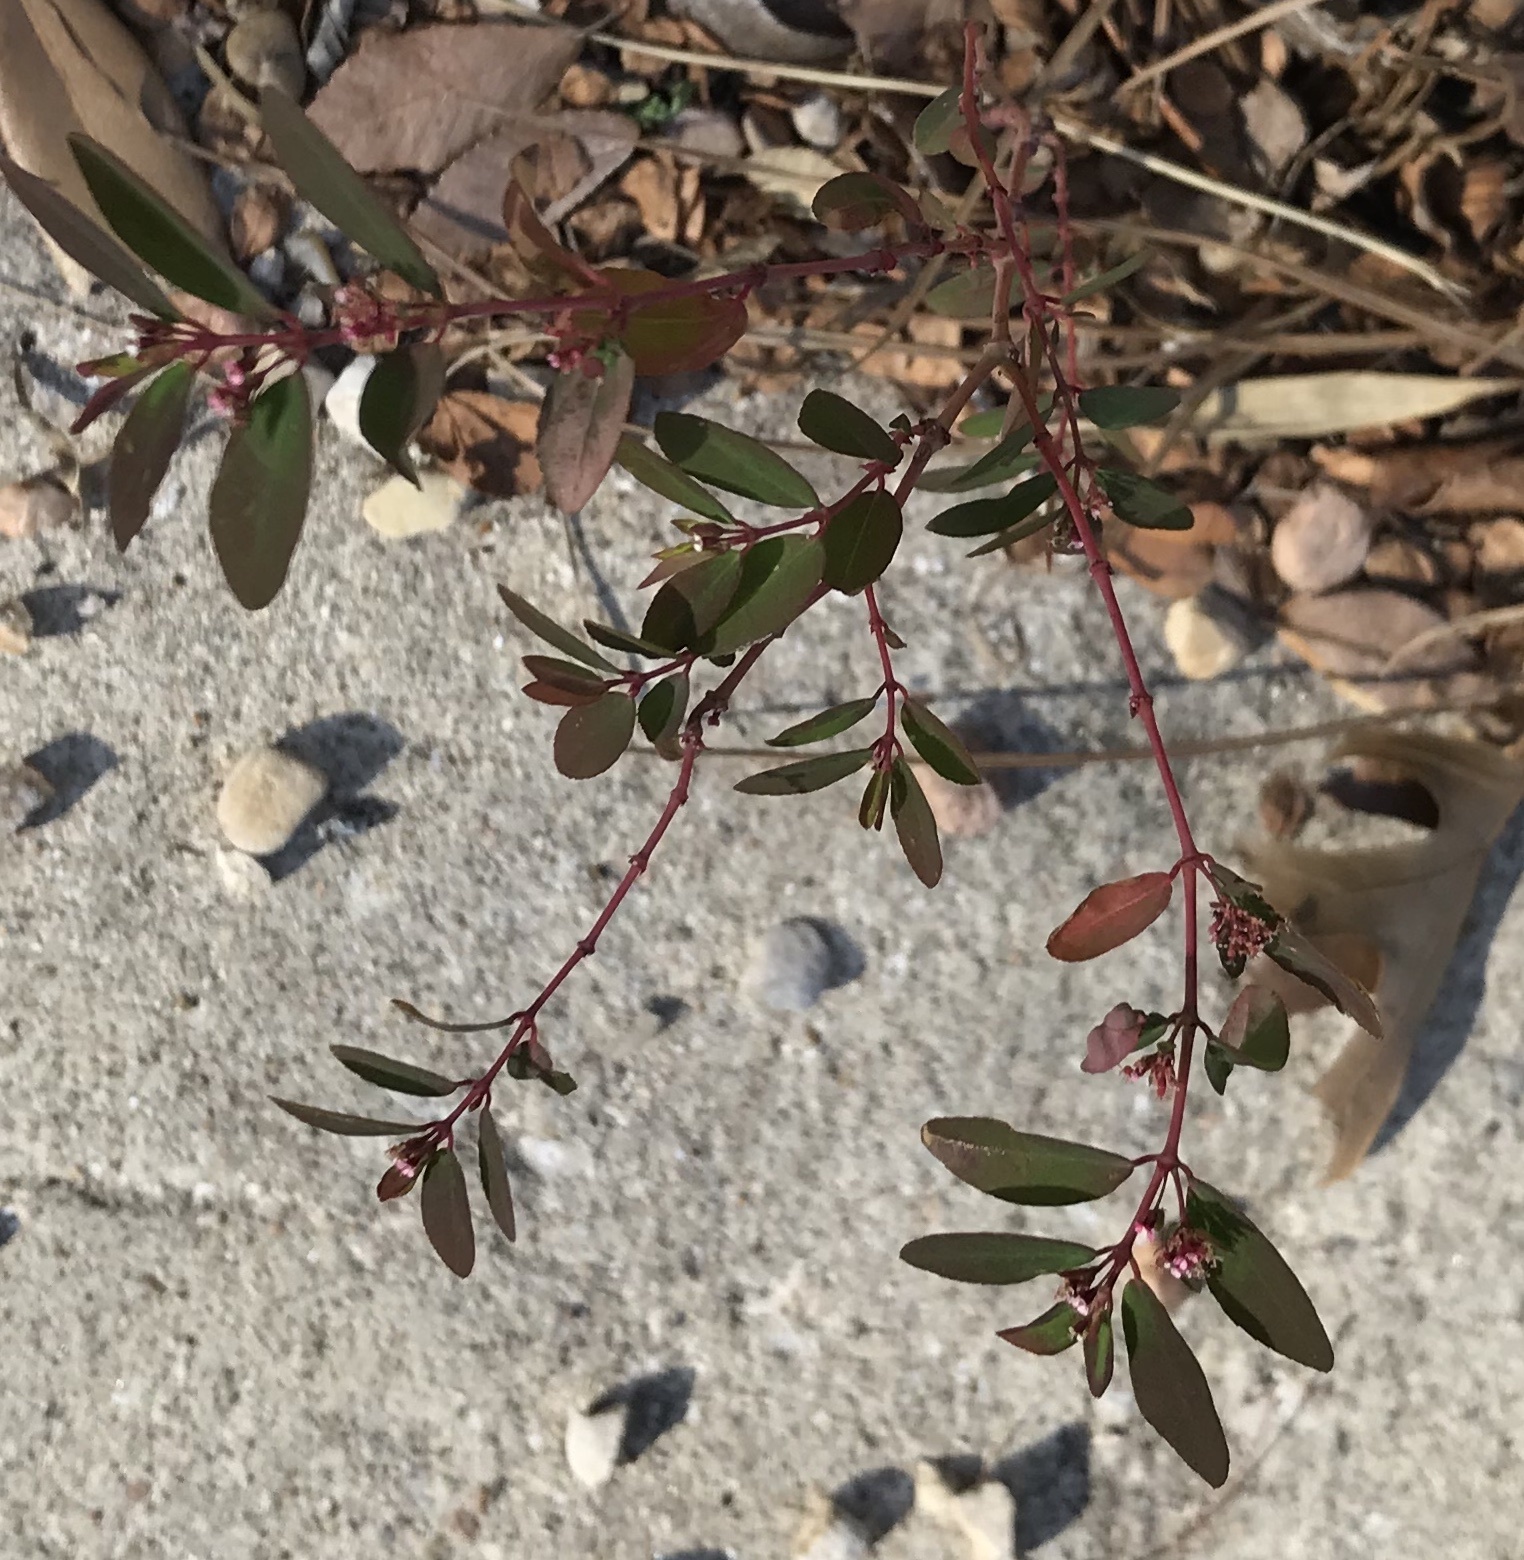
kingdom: Plantae
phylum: Tracheophyta
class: Magnoliopsida
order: Malpighiales
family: Euphorbiaceae
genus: Euphorbia
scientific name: Euphorbia hypericifolia
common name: Graceful sandmat
